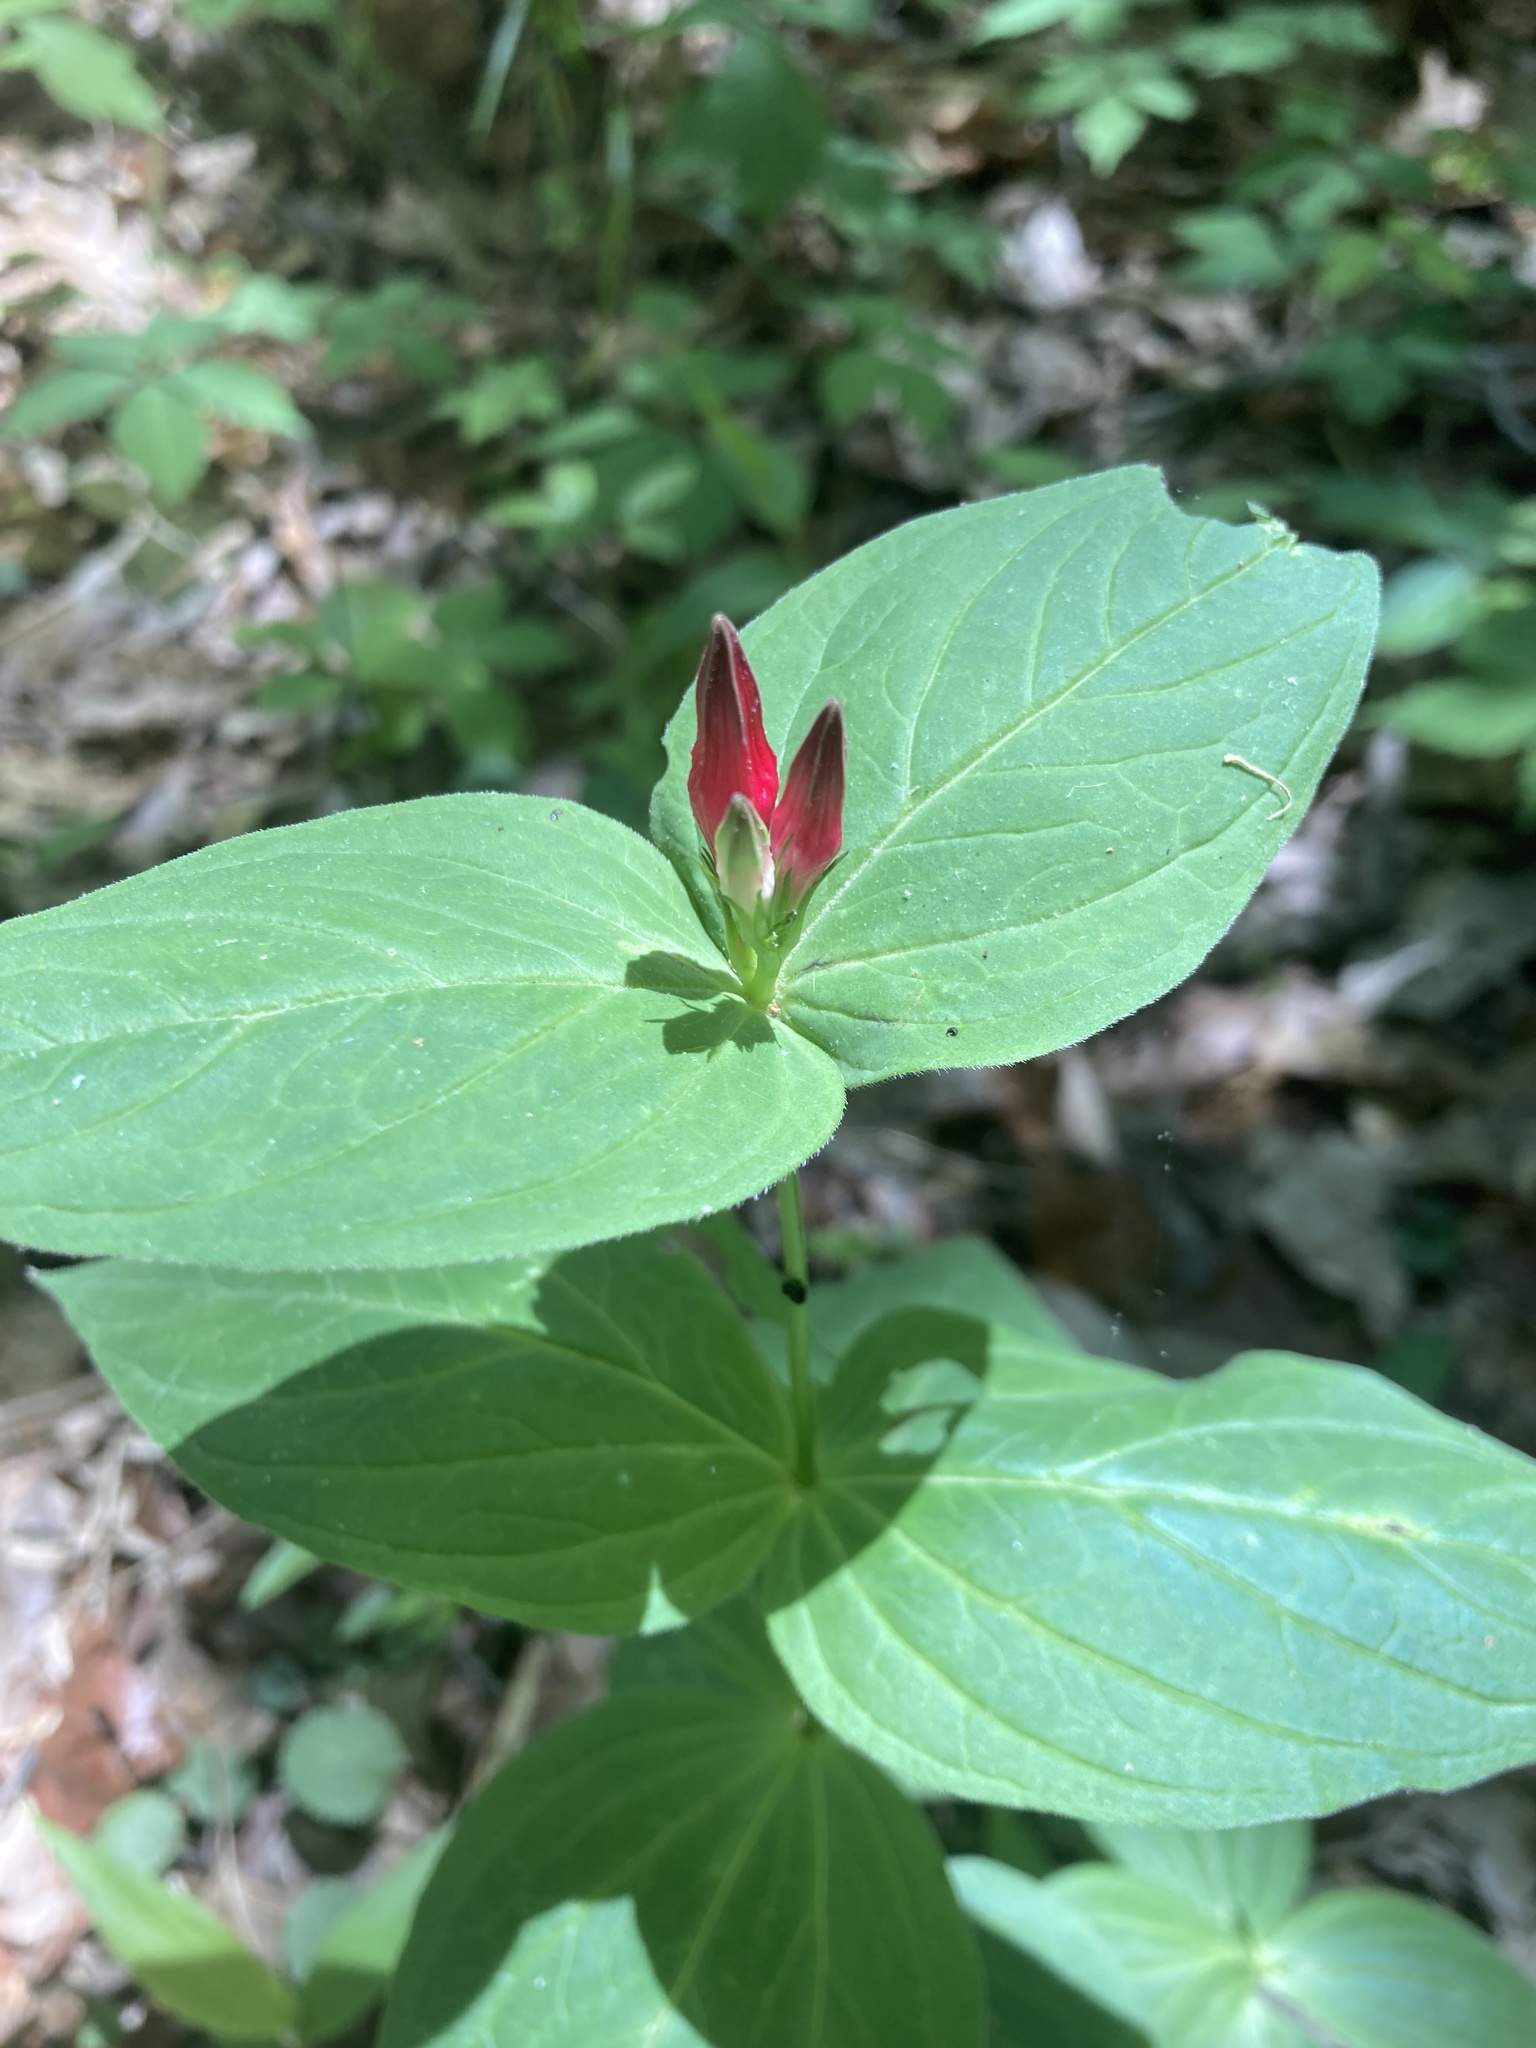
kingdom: Plantae
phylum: Tracheophyta
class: Magnoliopsida
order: Gentianales
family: Loganiaceae
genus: Spigelia
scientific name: Spigelia marilandica
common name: Indian-pink
